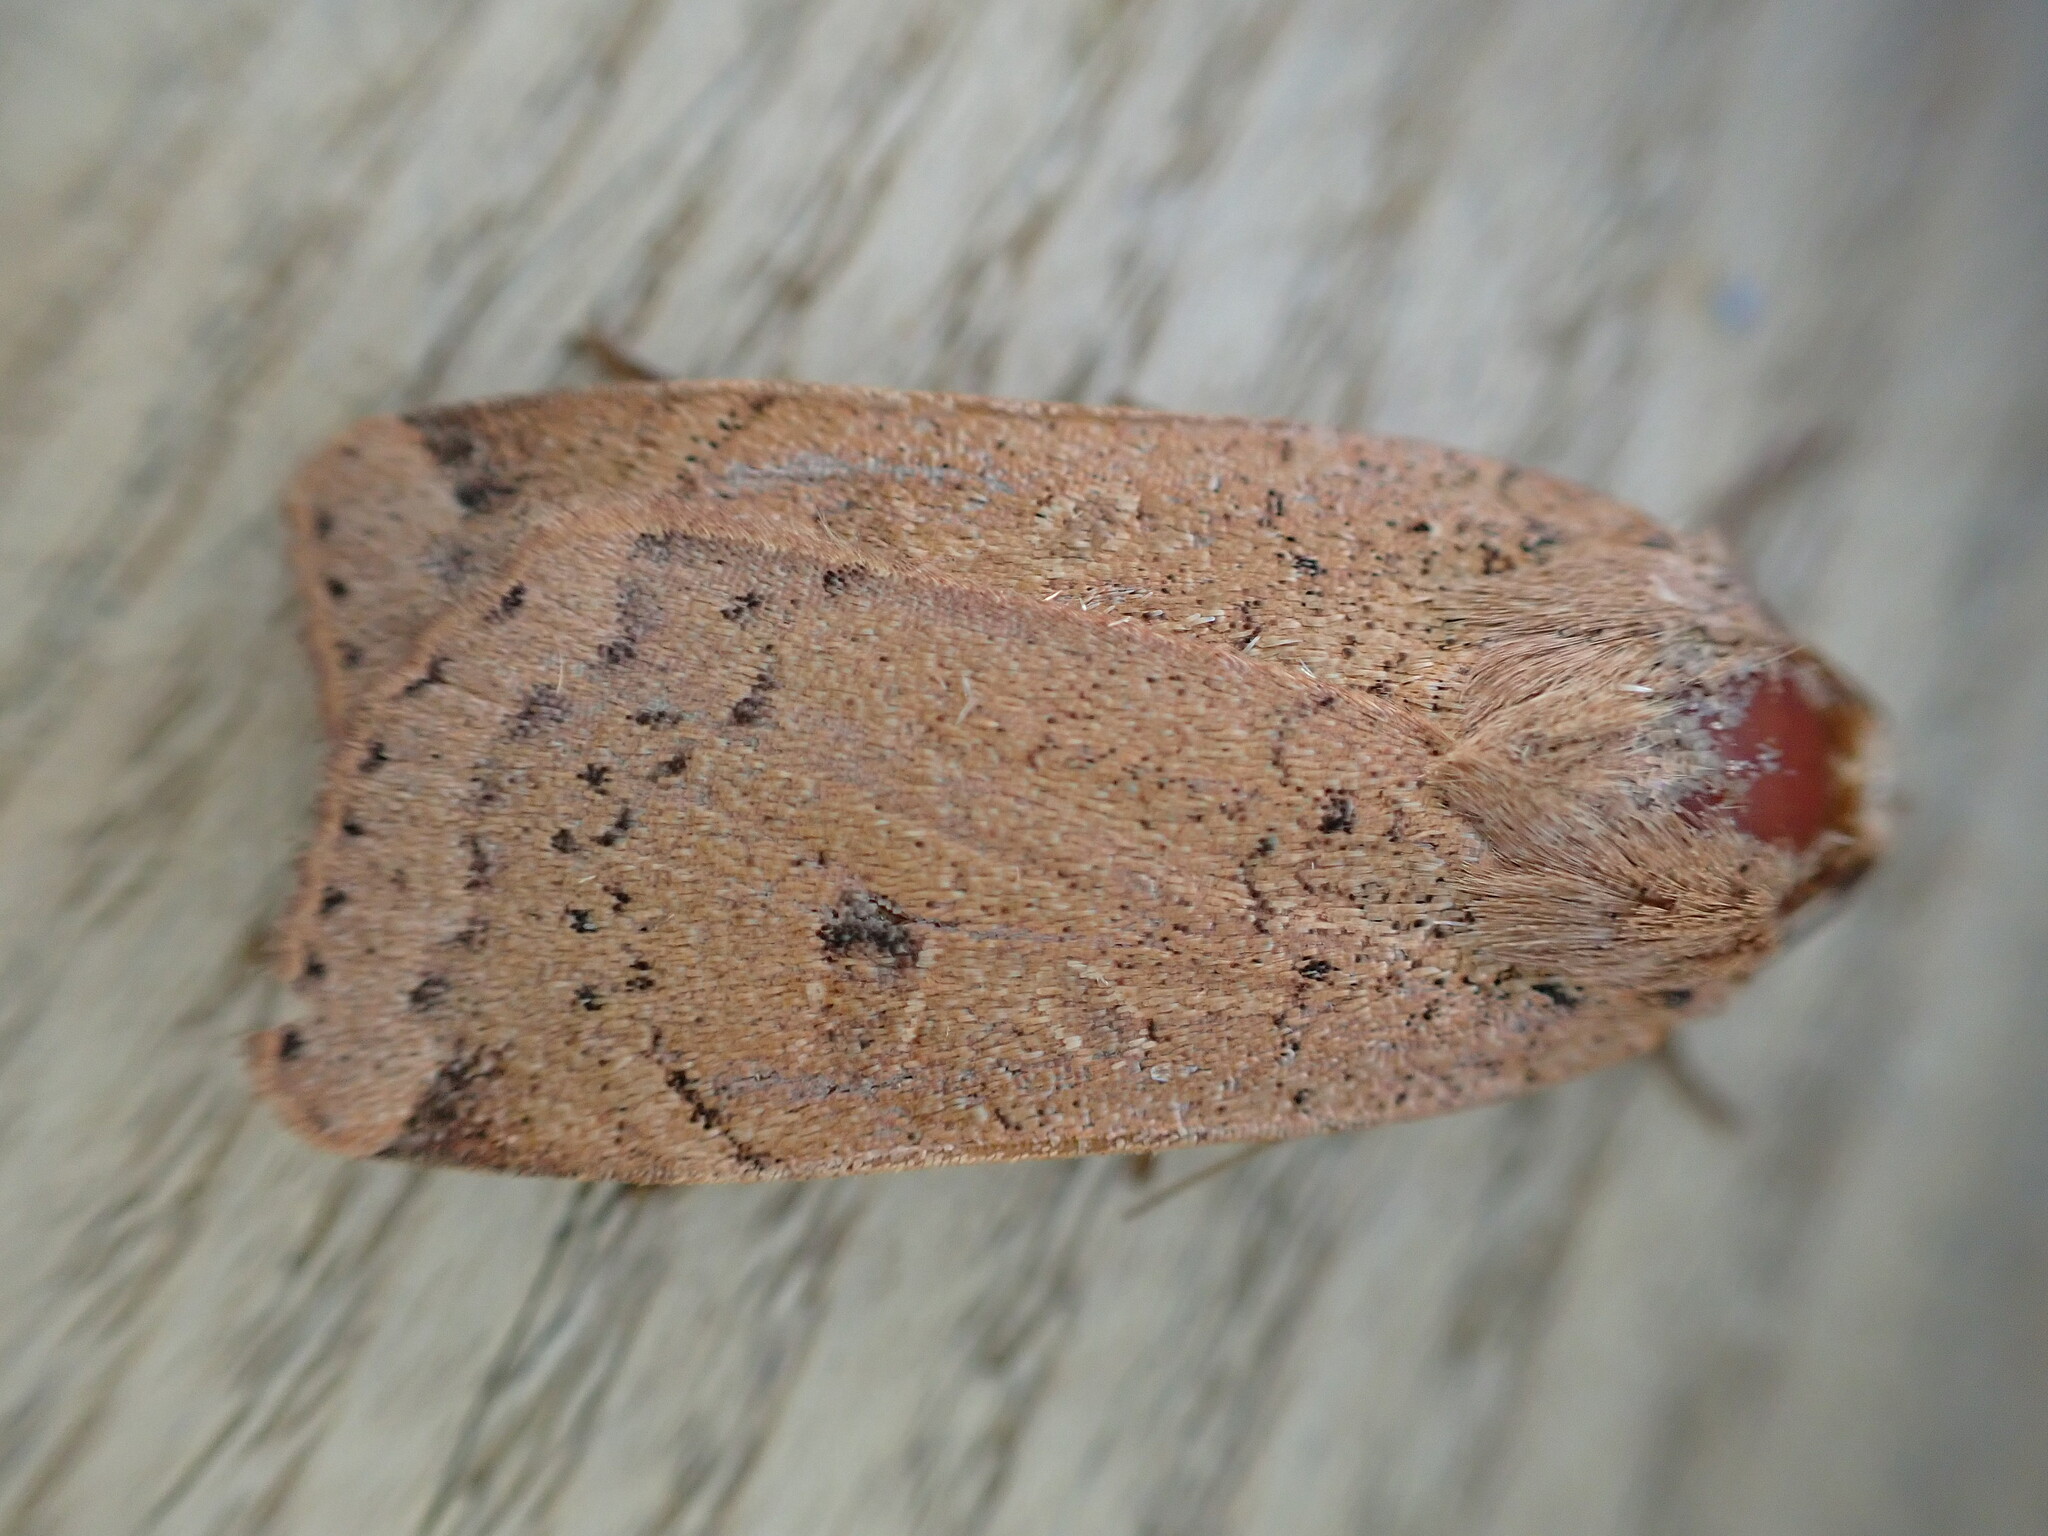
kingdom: Animalia
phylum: Arthropoda
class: Insecta
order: Lepidoptera
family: Noctuidae
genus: Noctua
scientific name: Noctua comes
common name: Lesser yellow underwing
